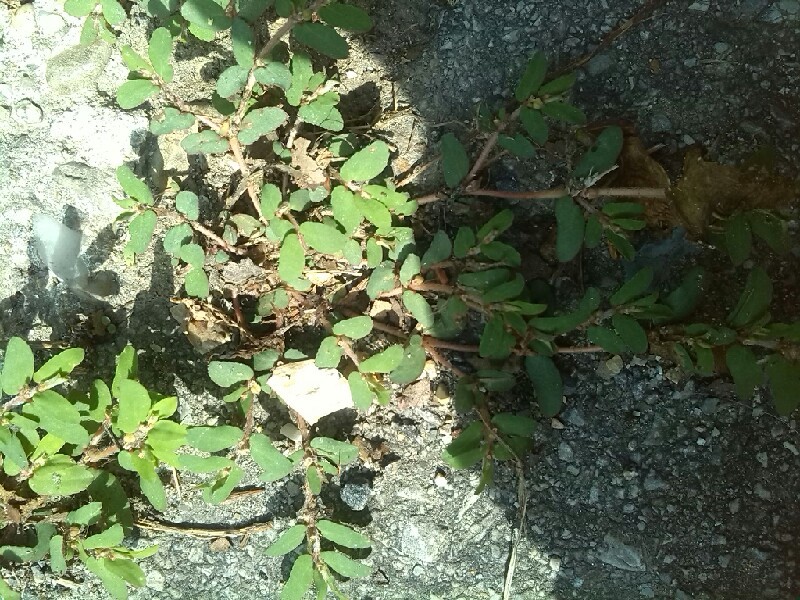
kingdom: Plantae
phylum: Tracheophyta
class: Magnoliopsida
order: Malpighiales
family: Euphorbiaceae
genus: Euphorbia
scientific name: Euphorbia maculata
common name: Spotted spurge
